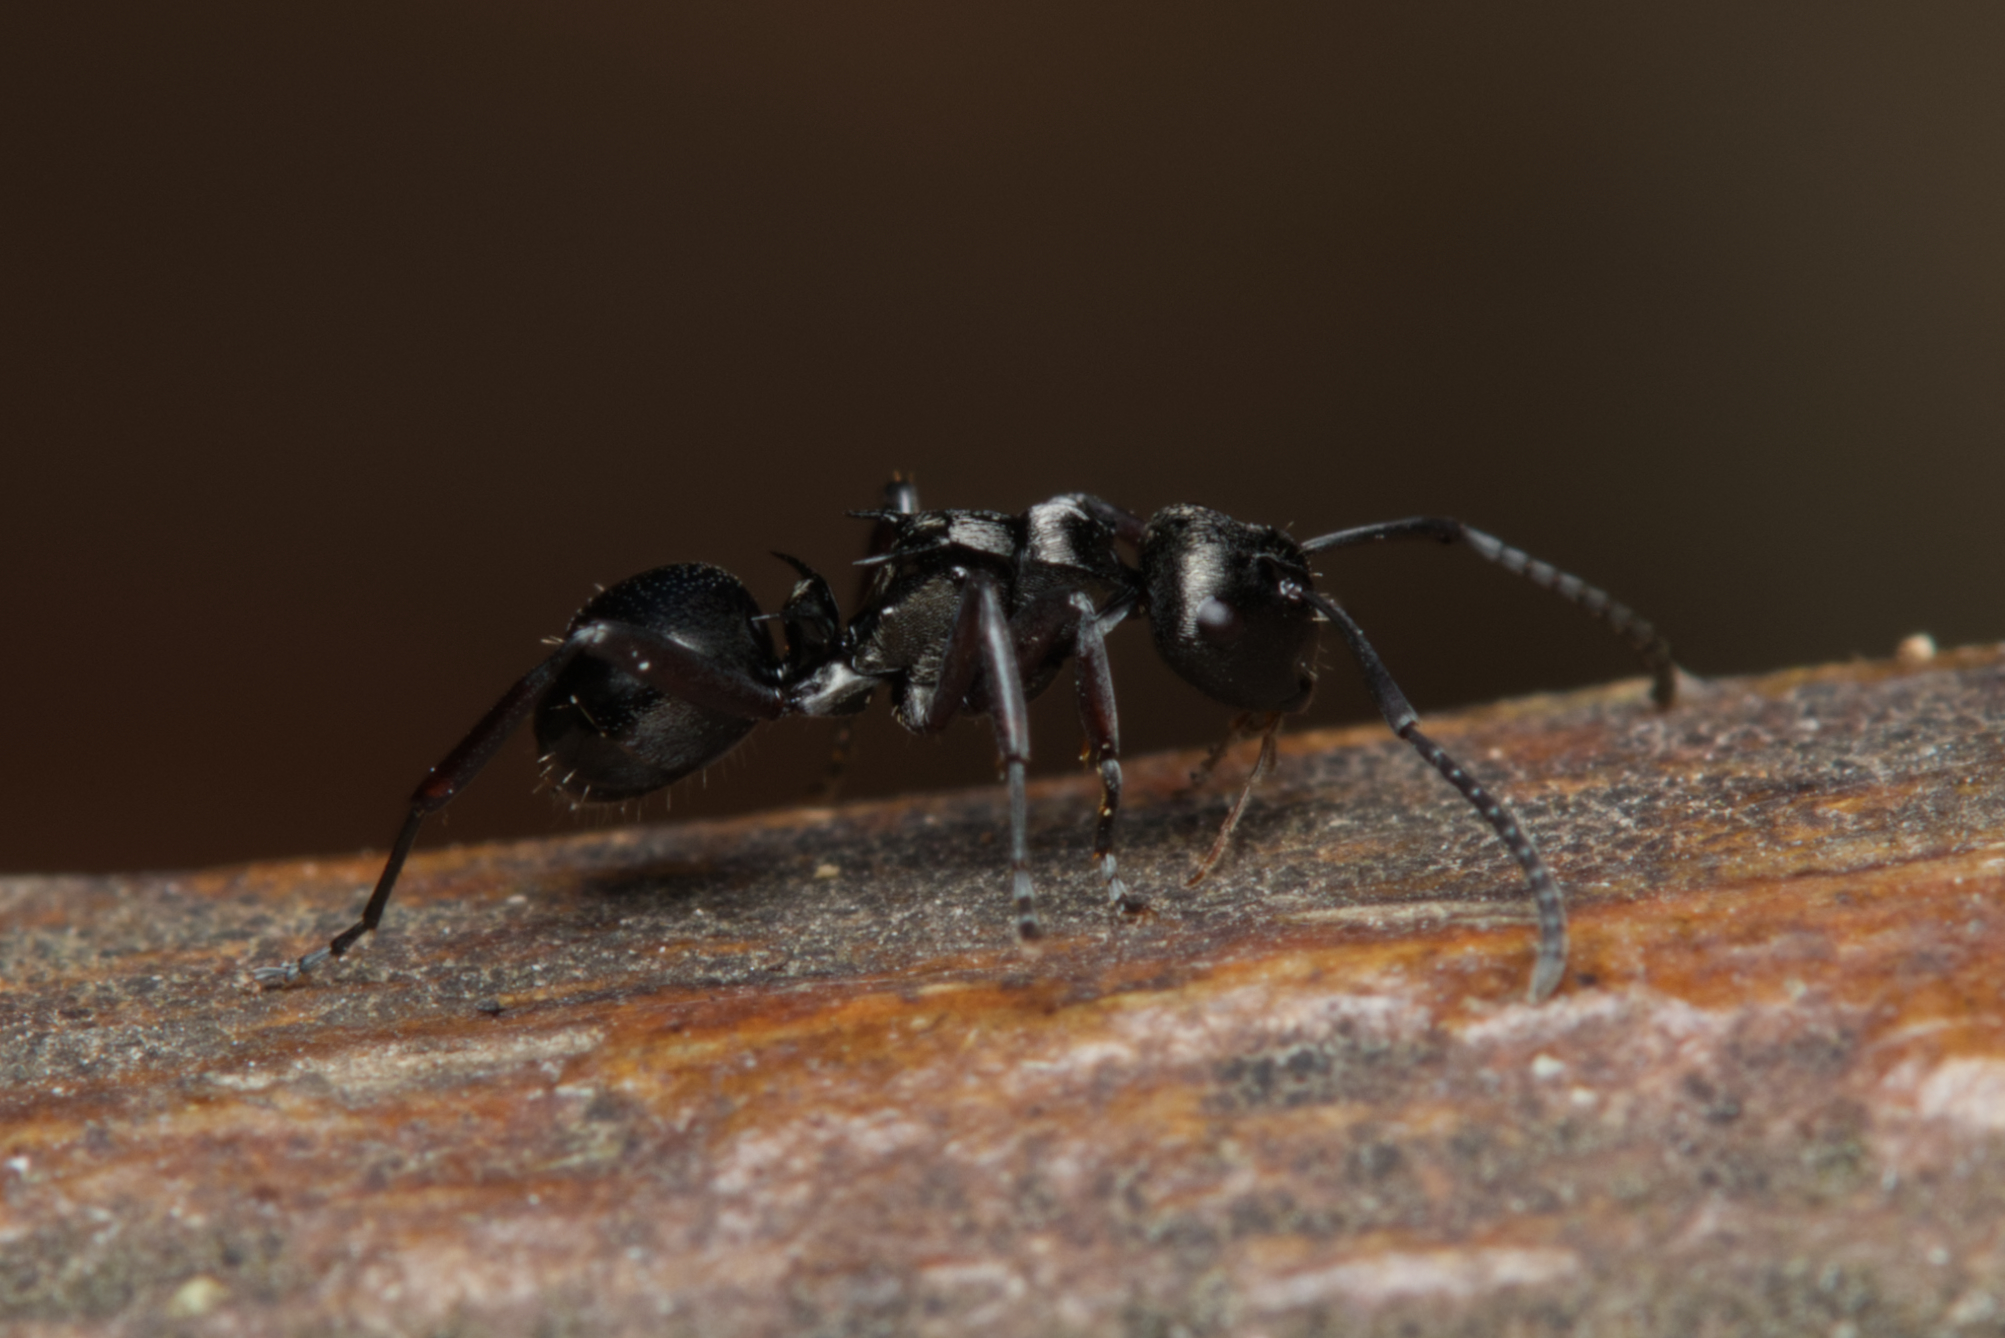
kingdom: Animalia
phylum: Arthropoda
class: Insecta
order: Hymenoptera
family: Formicidae
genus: Polyrhachis
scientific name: Polyrhachis clio
